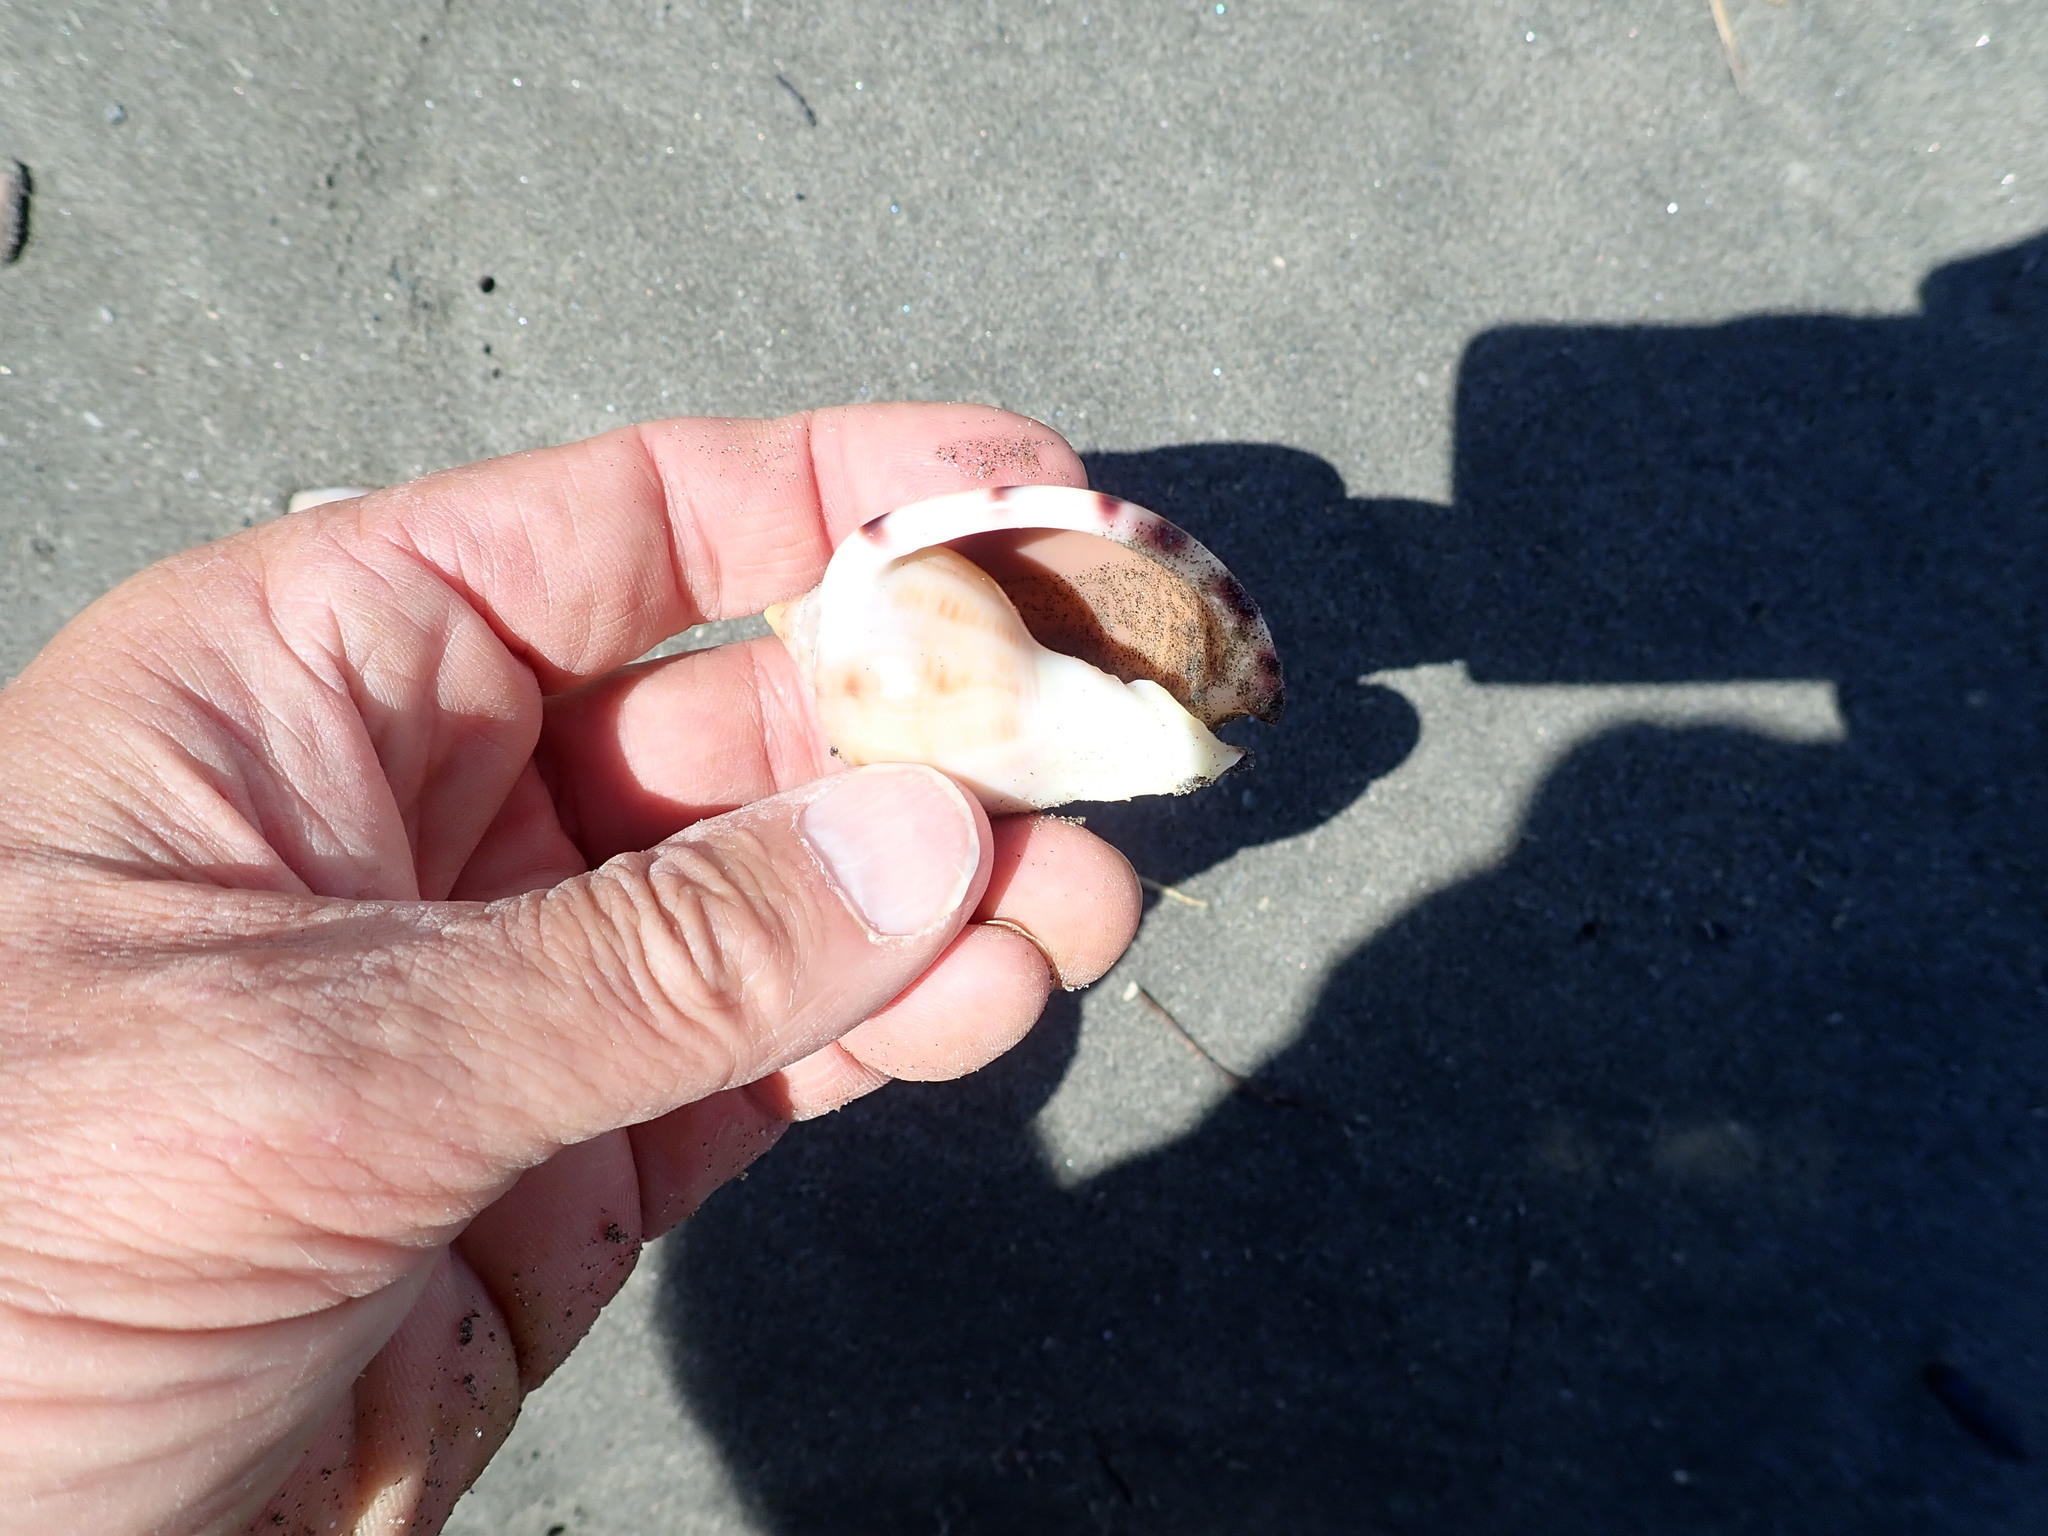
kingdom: Animalia
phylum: Mollusca
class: Gastropoda
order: Littorinimorpha
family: Cassidae
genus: Semicassis
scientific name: Semicassis pyrum
